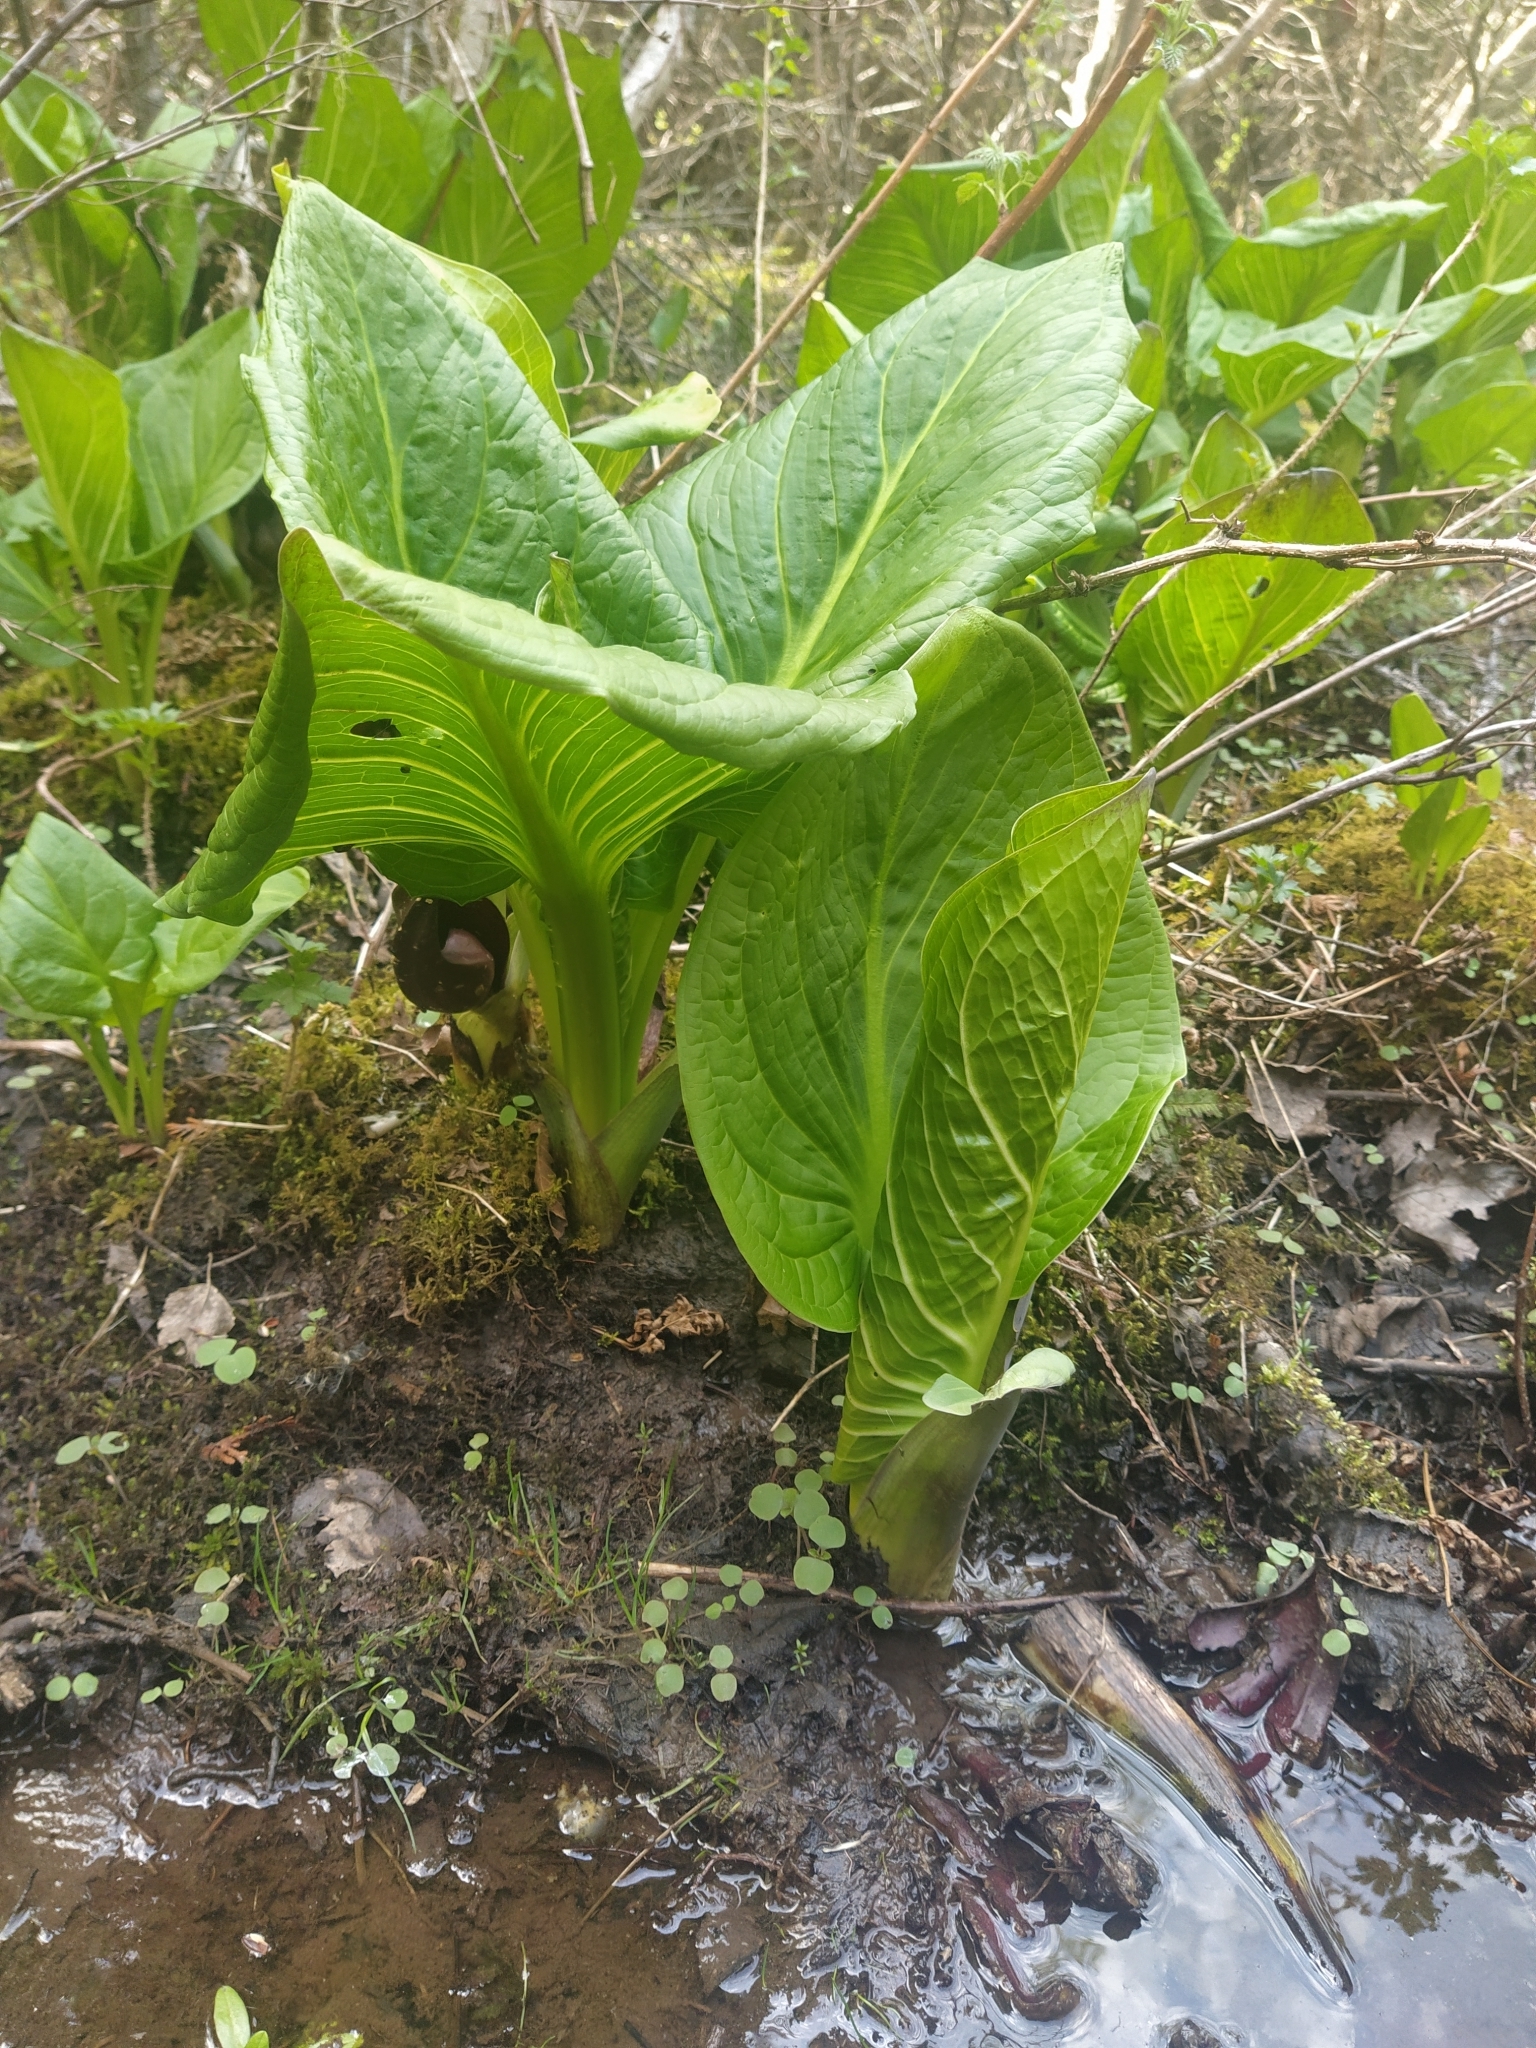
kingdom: Plantae
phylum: Tracheophyta
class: Liliopsida
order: Alismatales
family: Araceae
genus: Symplocarpus
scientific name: Symplocarpus foetidus
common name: Eastern skunk cabbage
